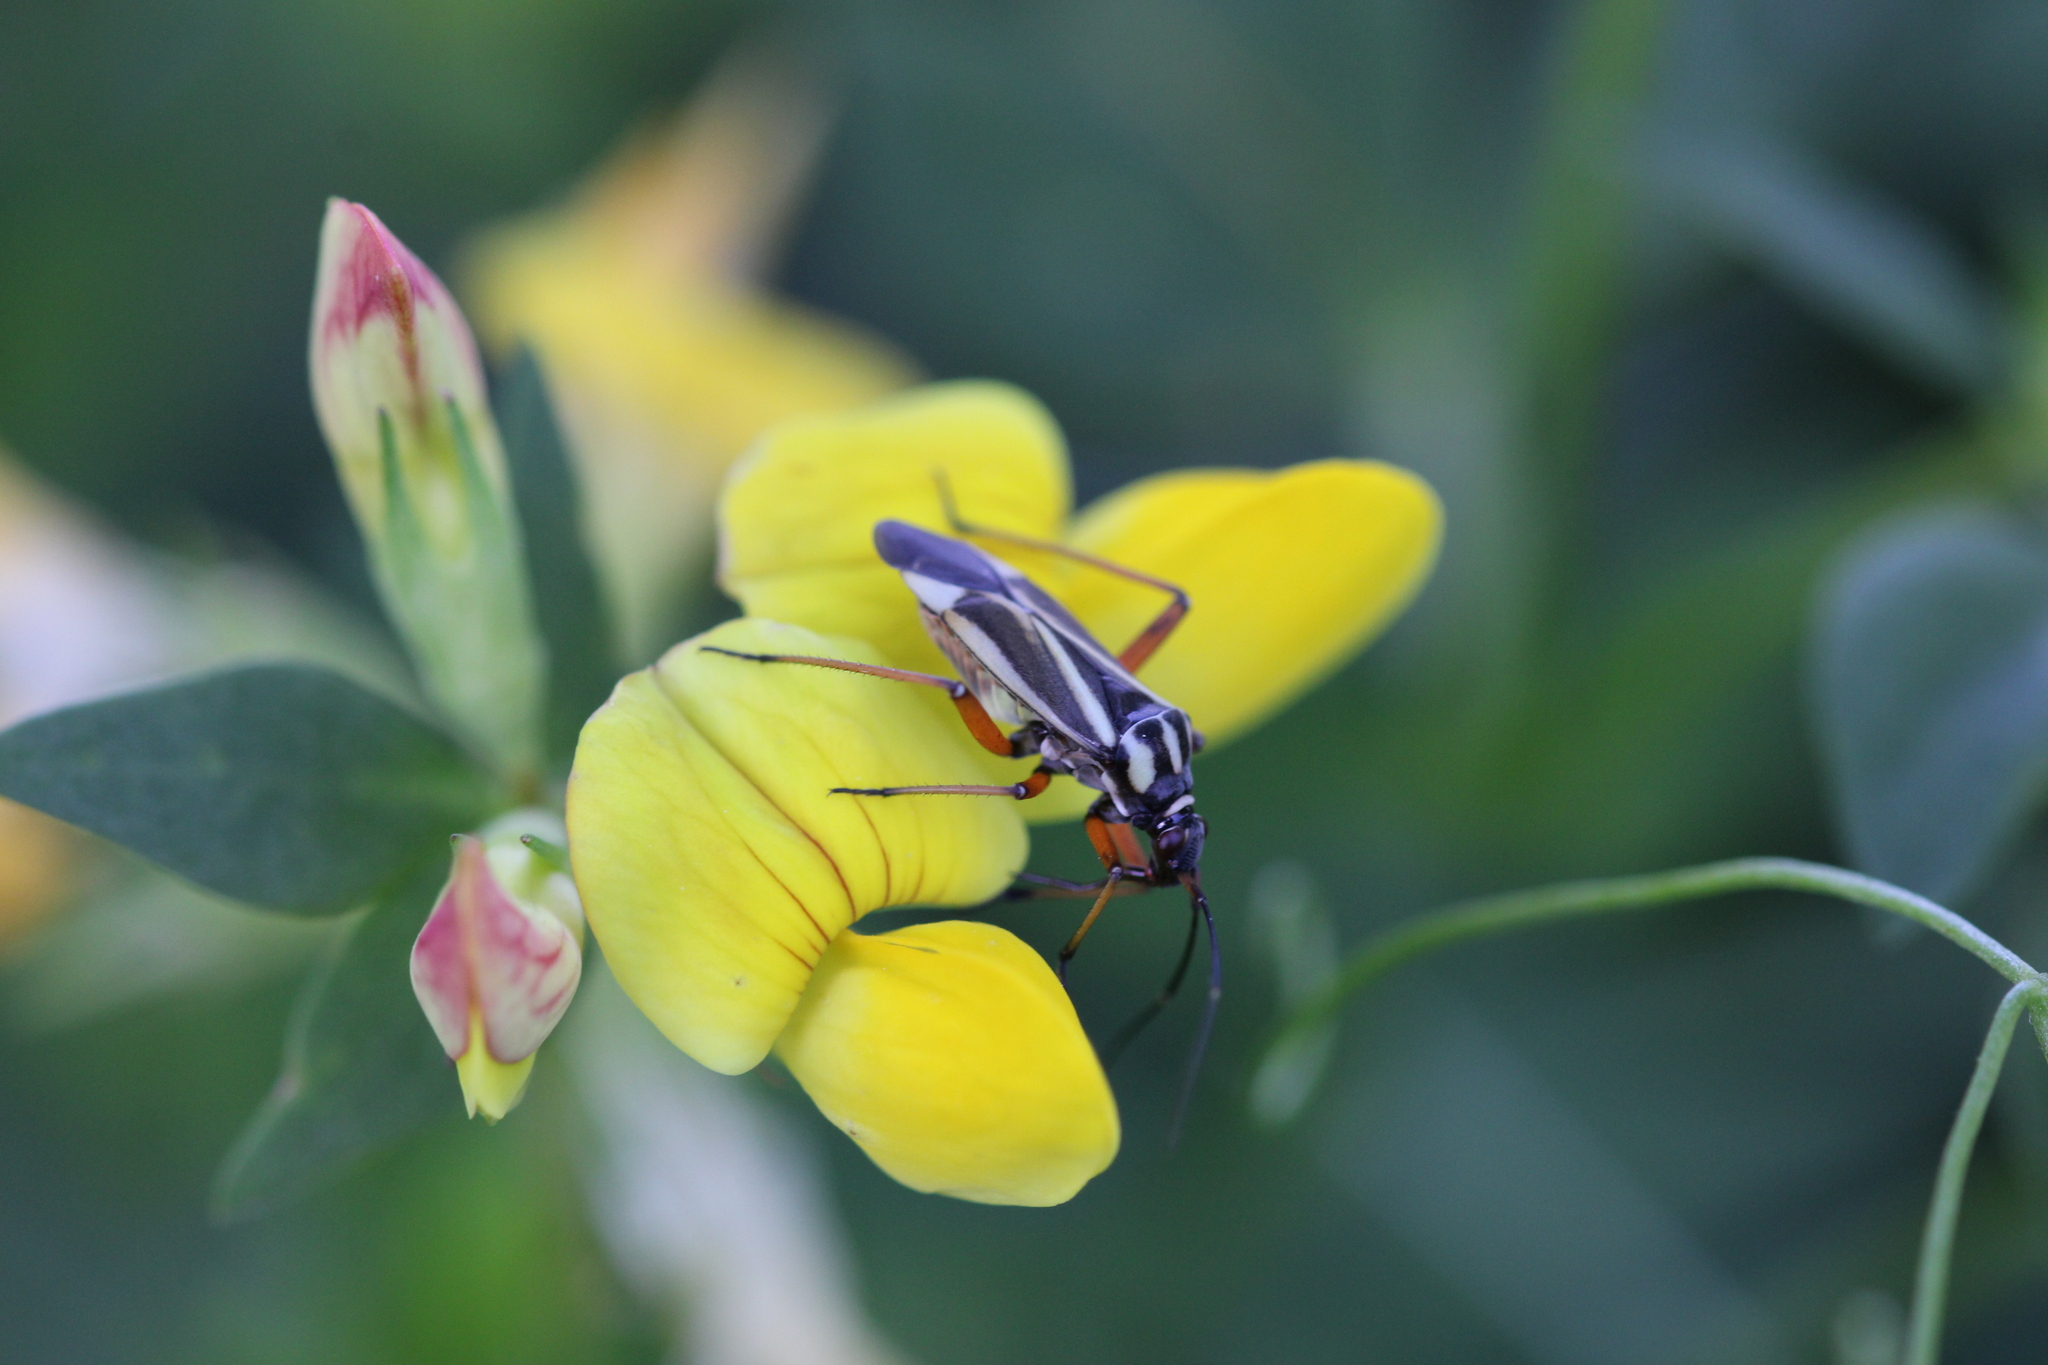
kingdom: Animalia
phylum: Arthropoda
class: Insecta
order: Hemiptera
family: Miridae
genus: Hadrodemus
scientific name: Hadrodemus m-flavum
